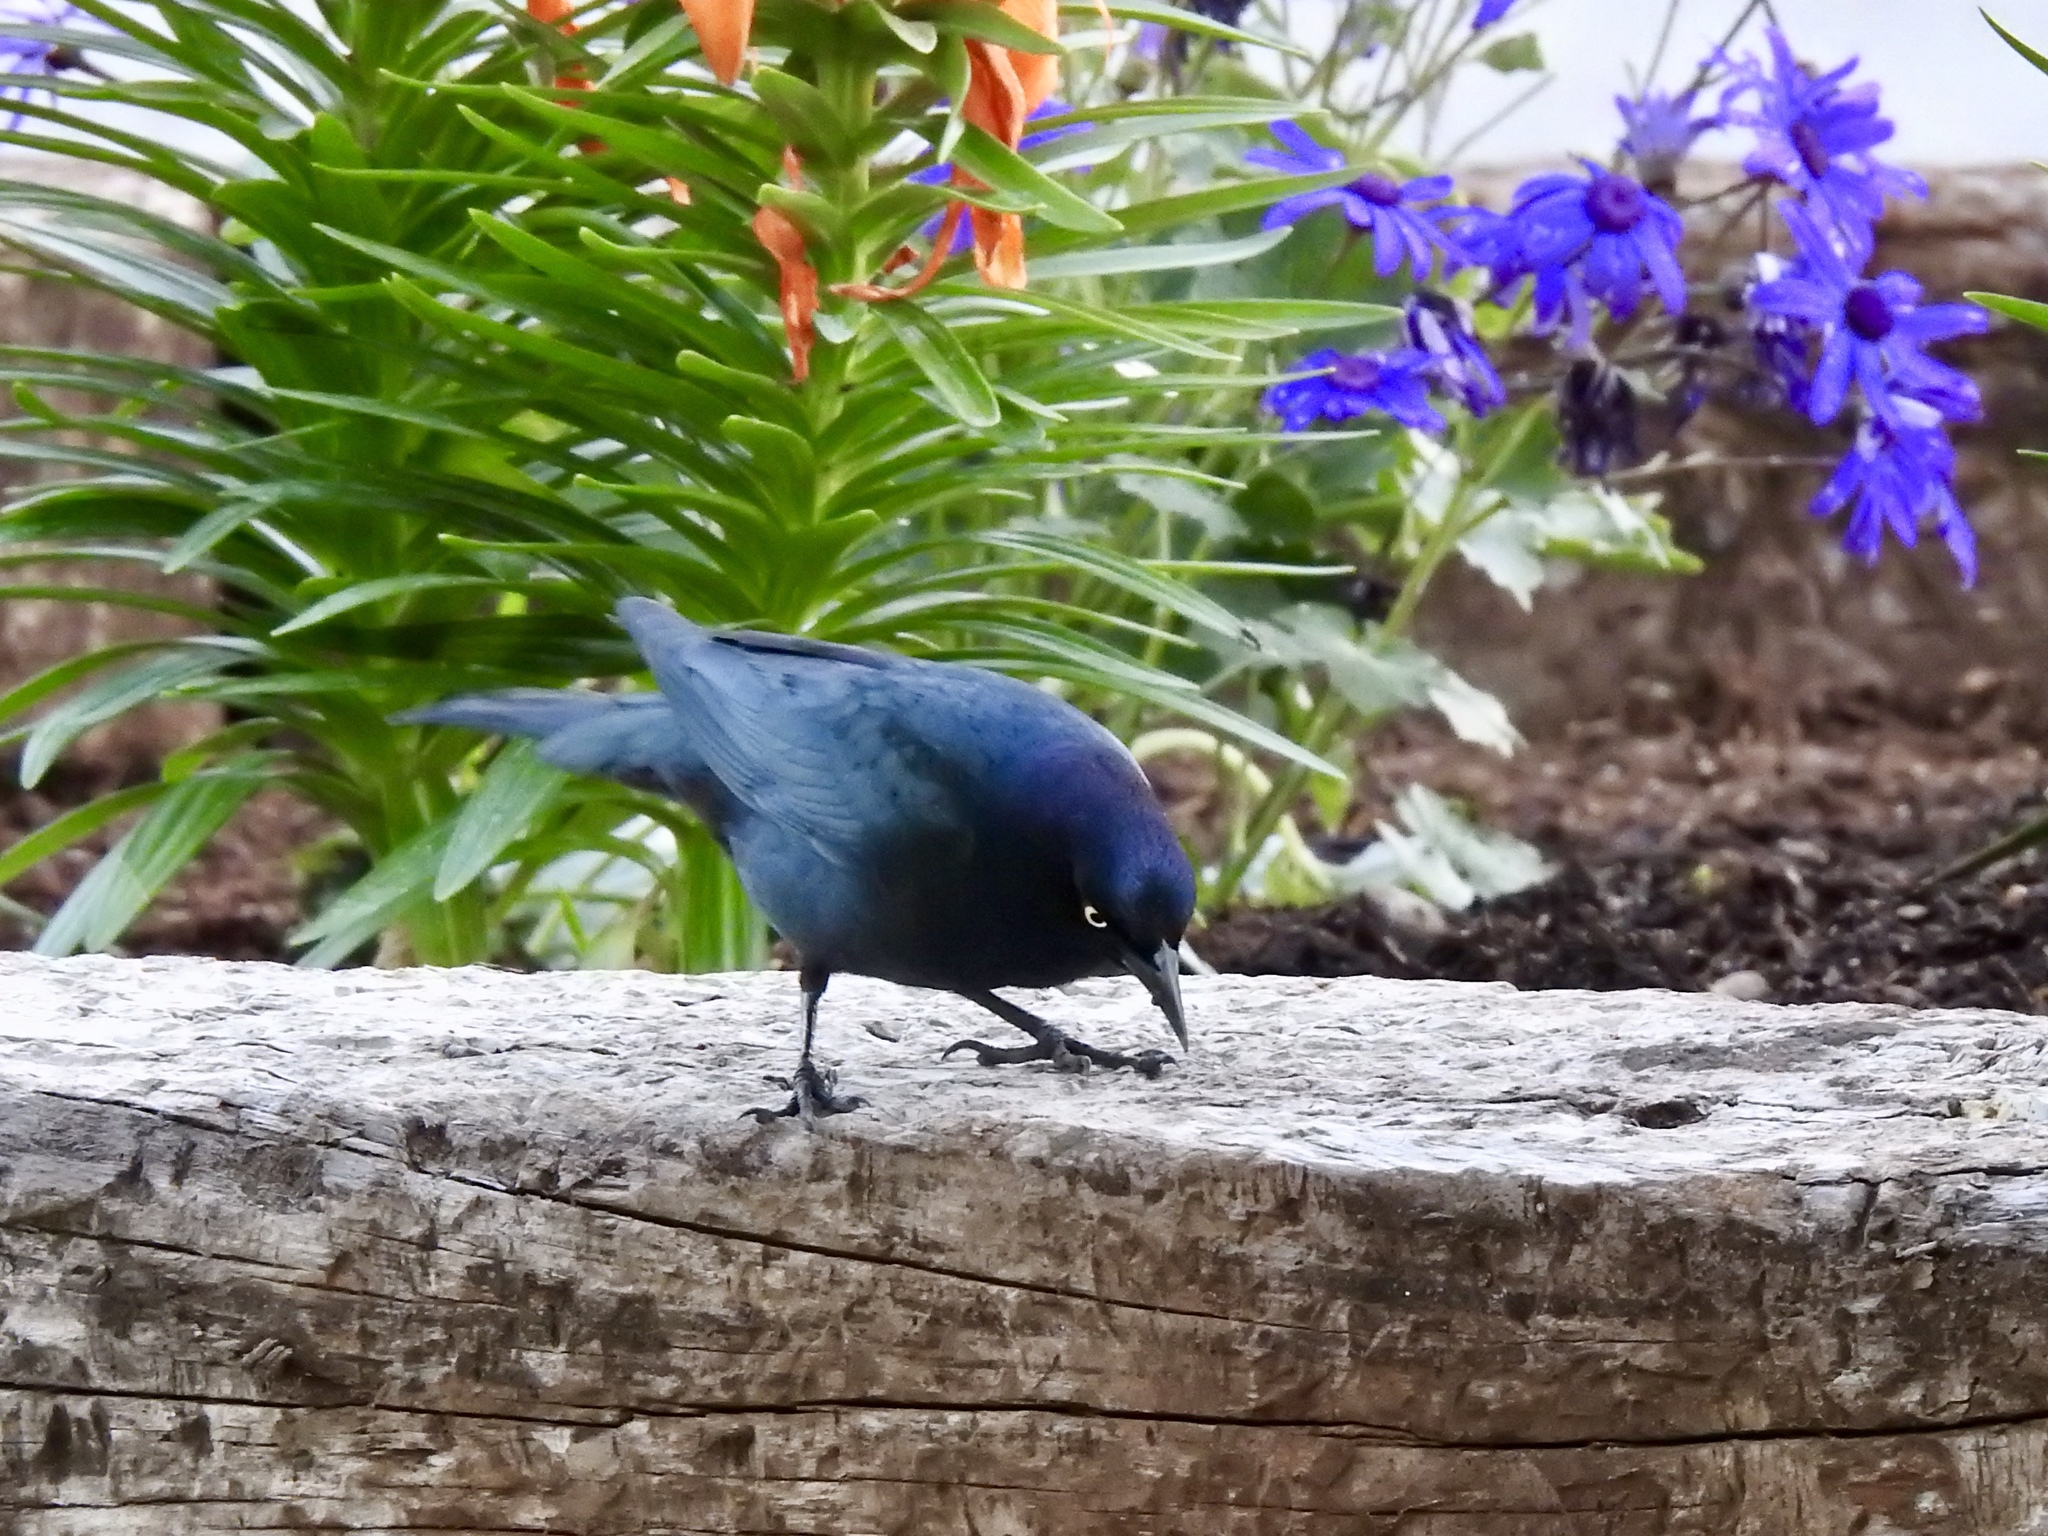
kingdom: Animalia
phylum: Chordata
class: Aves
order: Passeriformes
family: Icteridae
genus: Euphagus
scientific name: Euphagus cyanocephalus
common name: Brewer's blackbird
